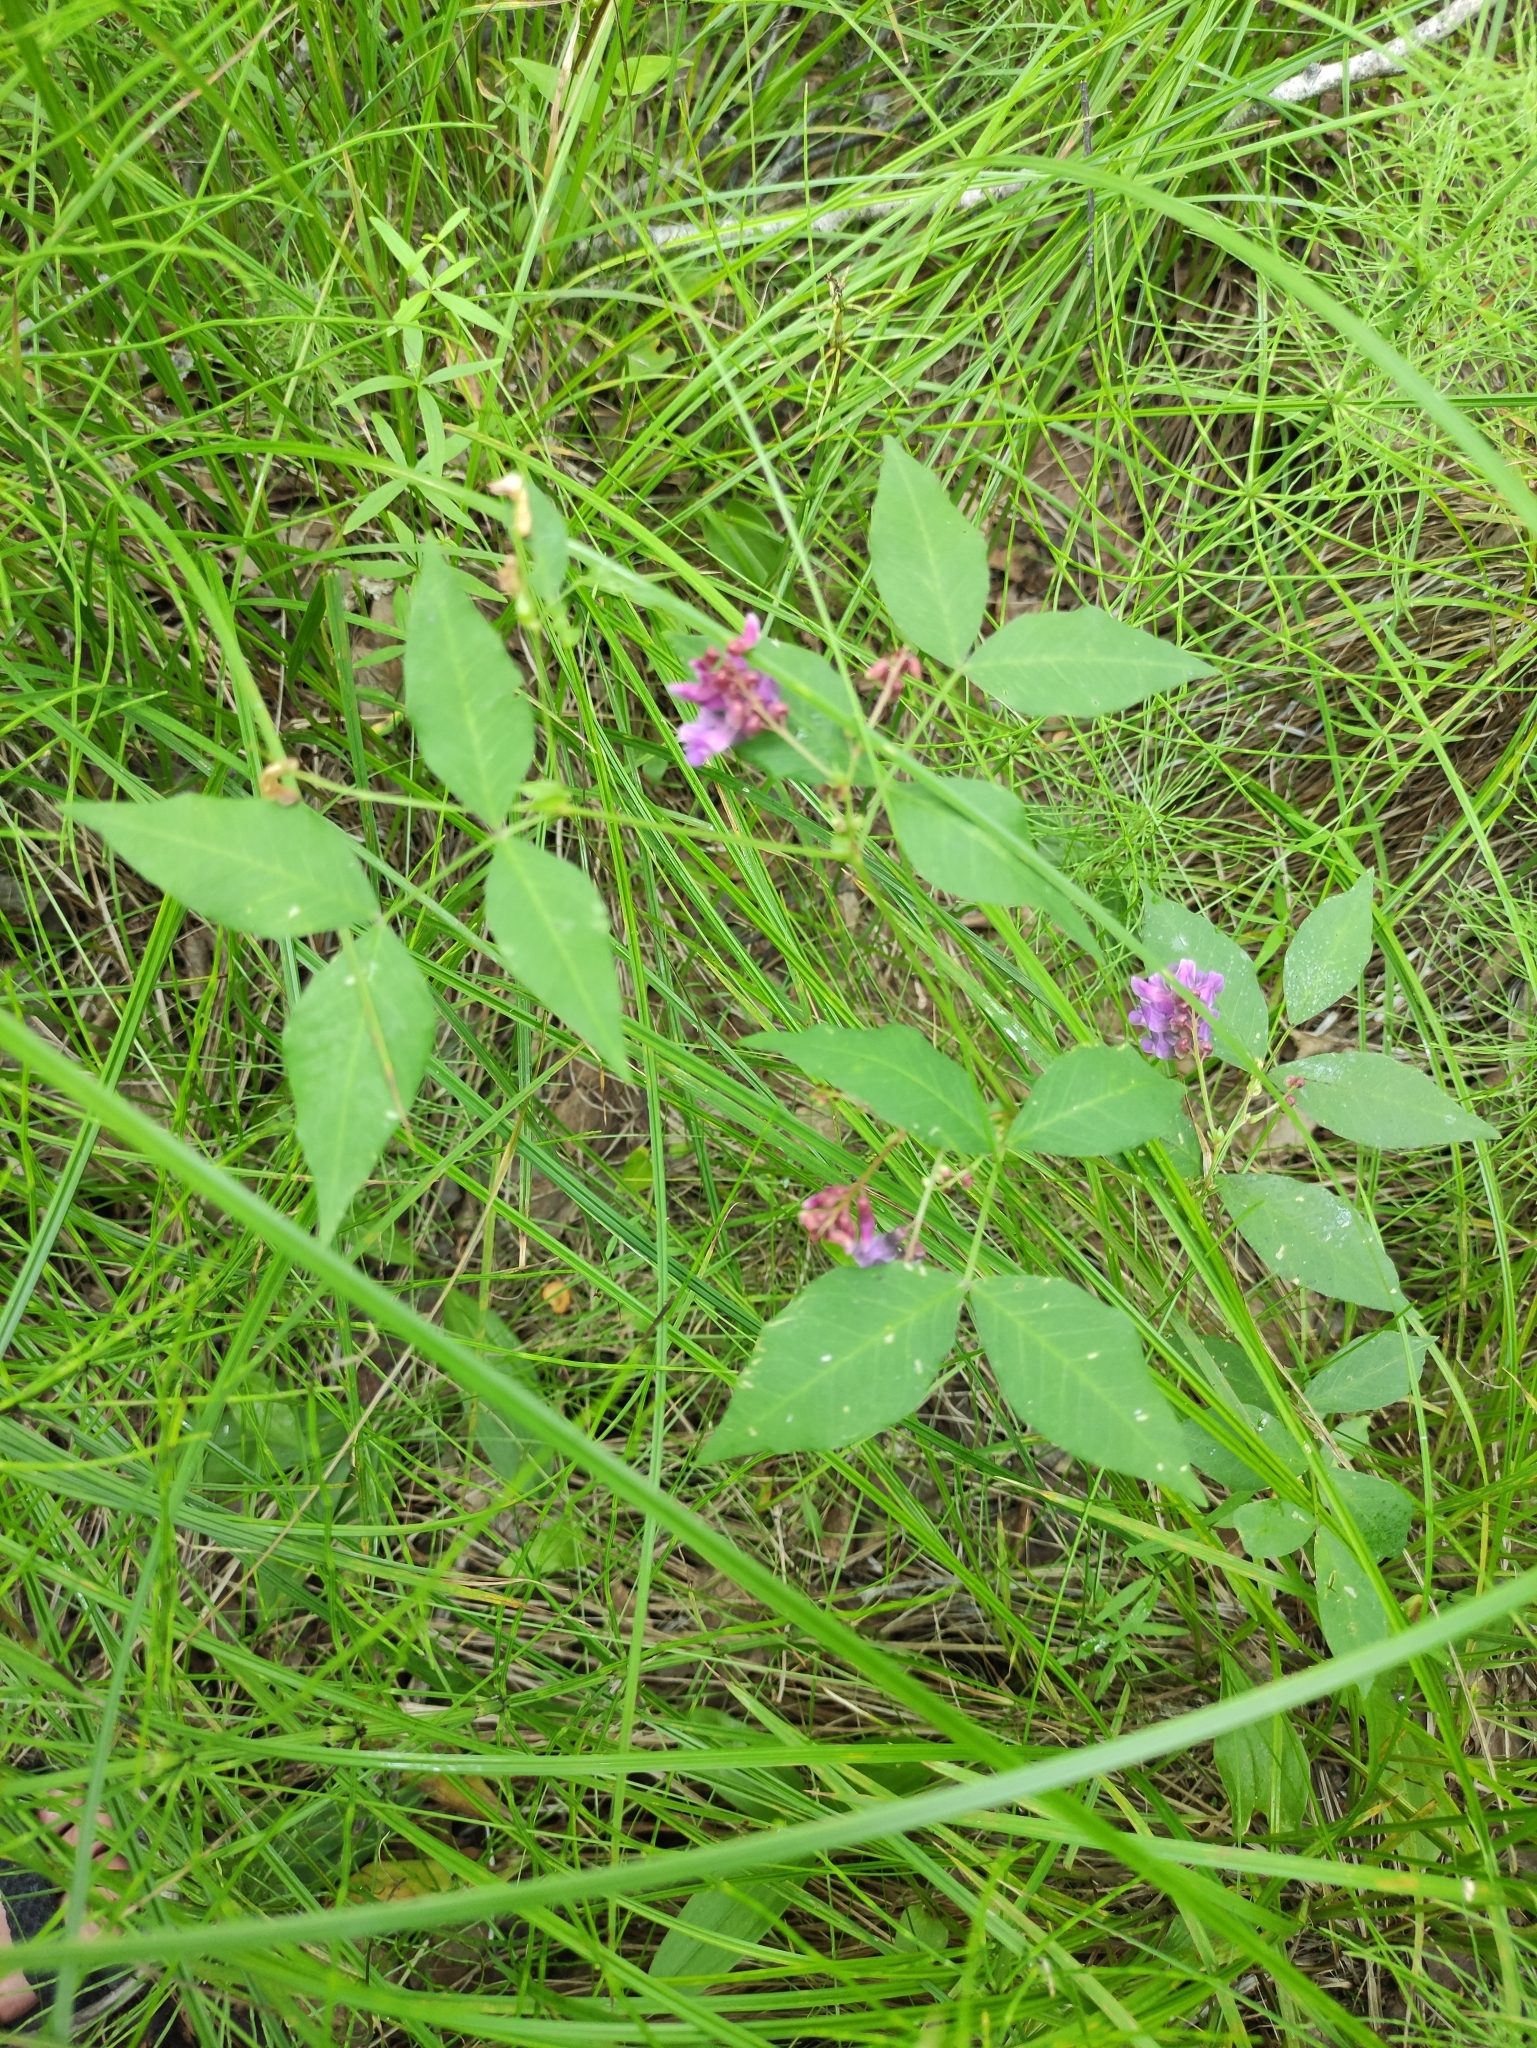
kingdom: Plantae
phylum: Tracheophyta
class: Magnoliopsida
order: Fabales
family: Fabaceae
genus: Vicia
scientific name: Vicia ramuliflora
